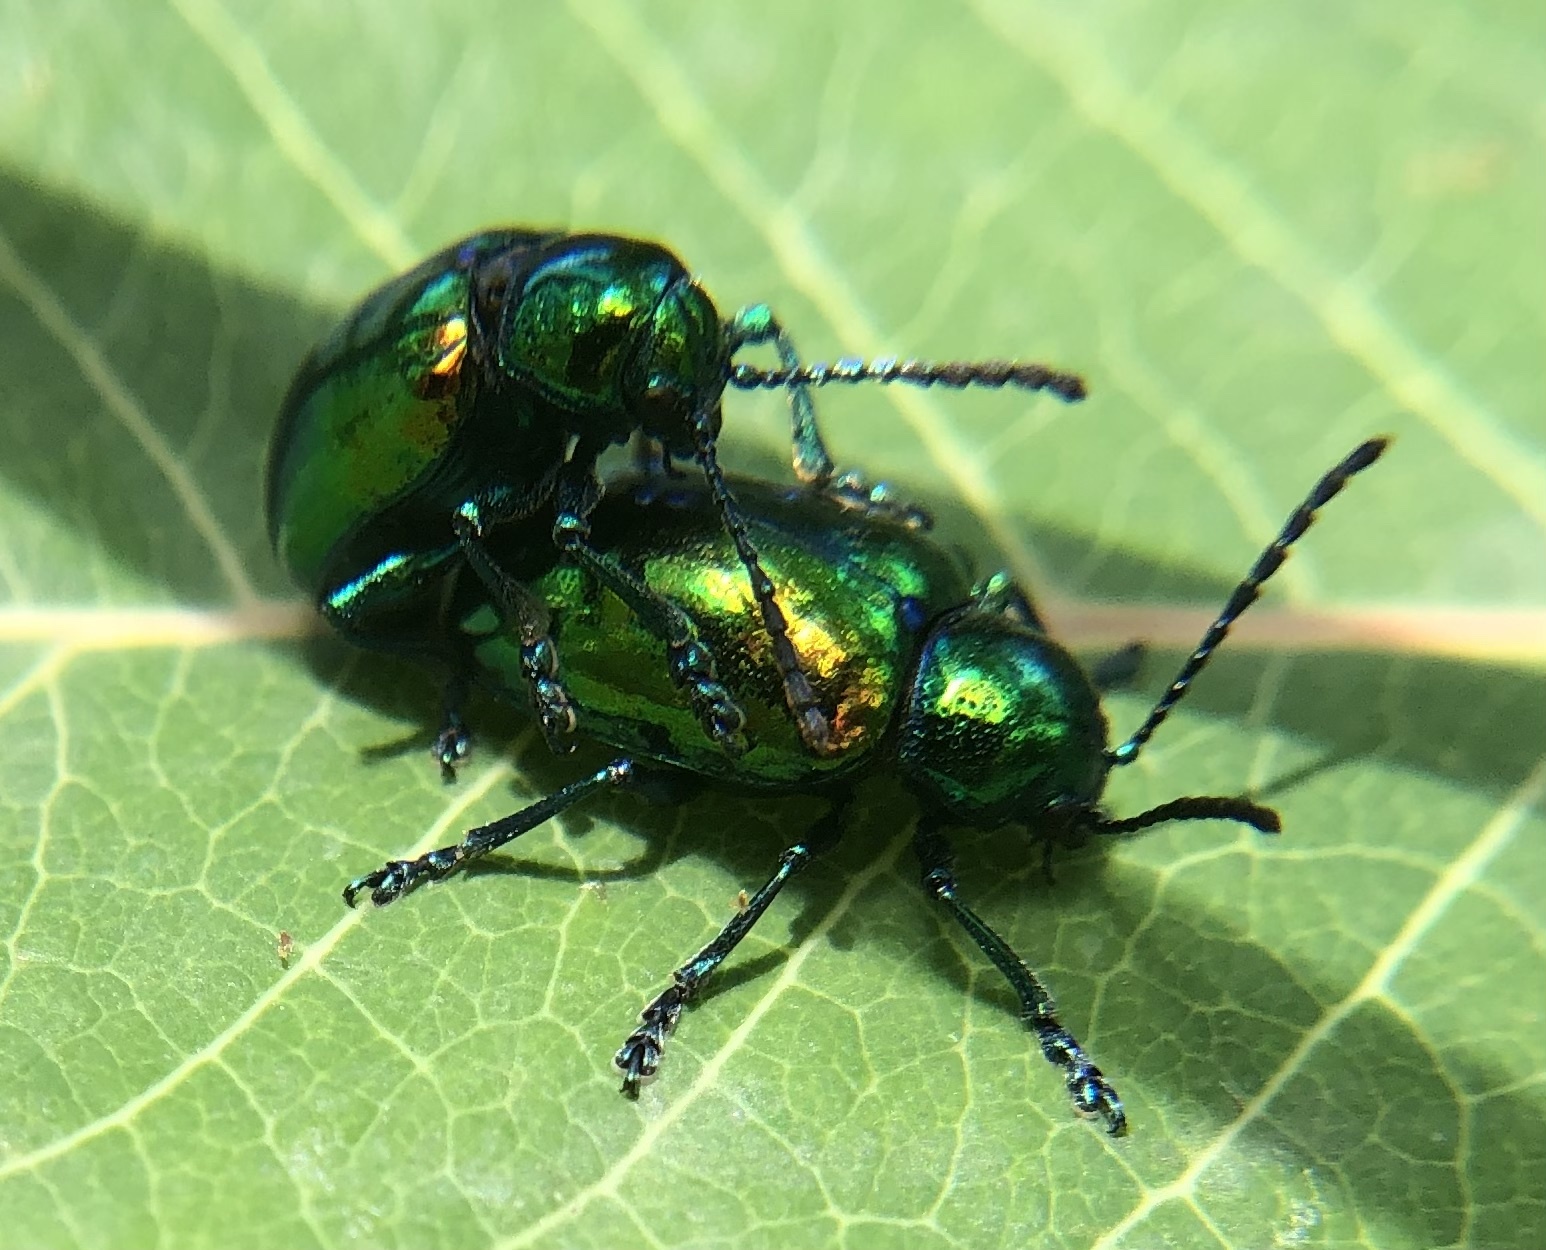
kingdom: Animalia
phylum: Arthropoda
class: Insecta
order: Coleoptera
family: Chrysomelidae
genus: Chrysochus
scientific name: Chrysochus auratus
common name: Dogbane leaf beetle
